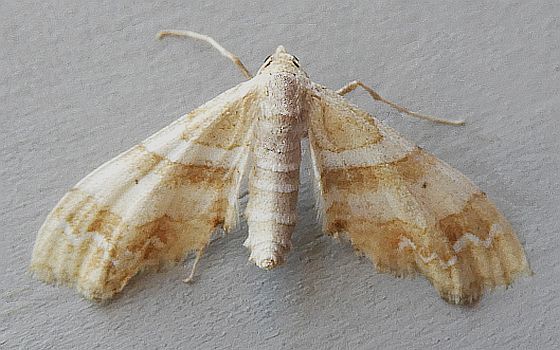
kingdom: Animalia
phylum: Arthropoda
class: Insecta
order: Lepidoptera
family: Geometridae
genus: Odontoptila
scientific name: Odontoptila obrimo
